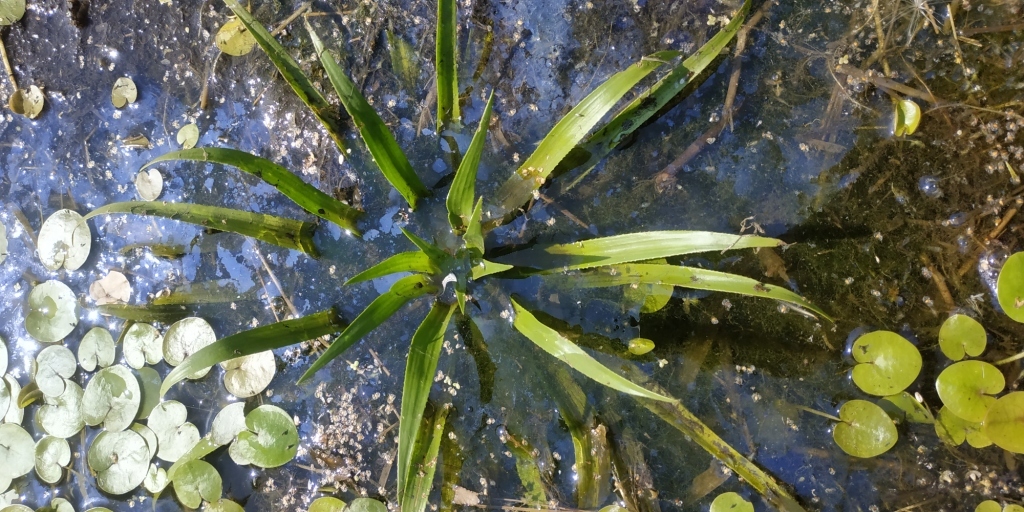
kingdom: Plantae
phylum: Tracheophyta
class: Liliopsida
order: Alismatales
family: Hydrocharitaceae
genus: Stratiotes
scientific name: Stratiotes aloides
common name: Water-soldier
